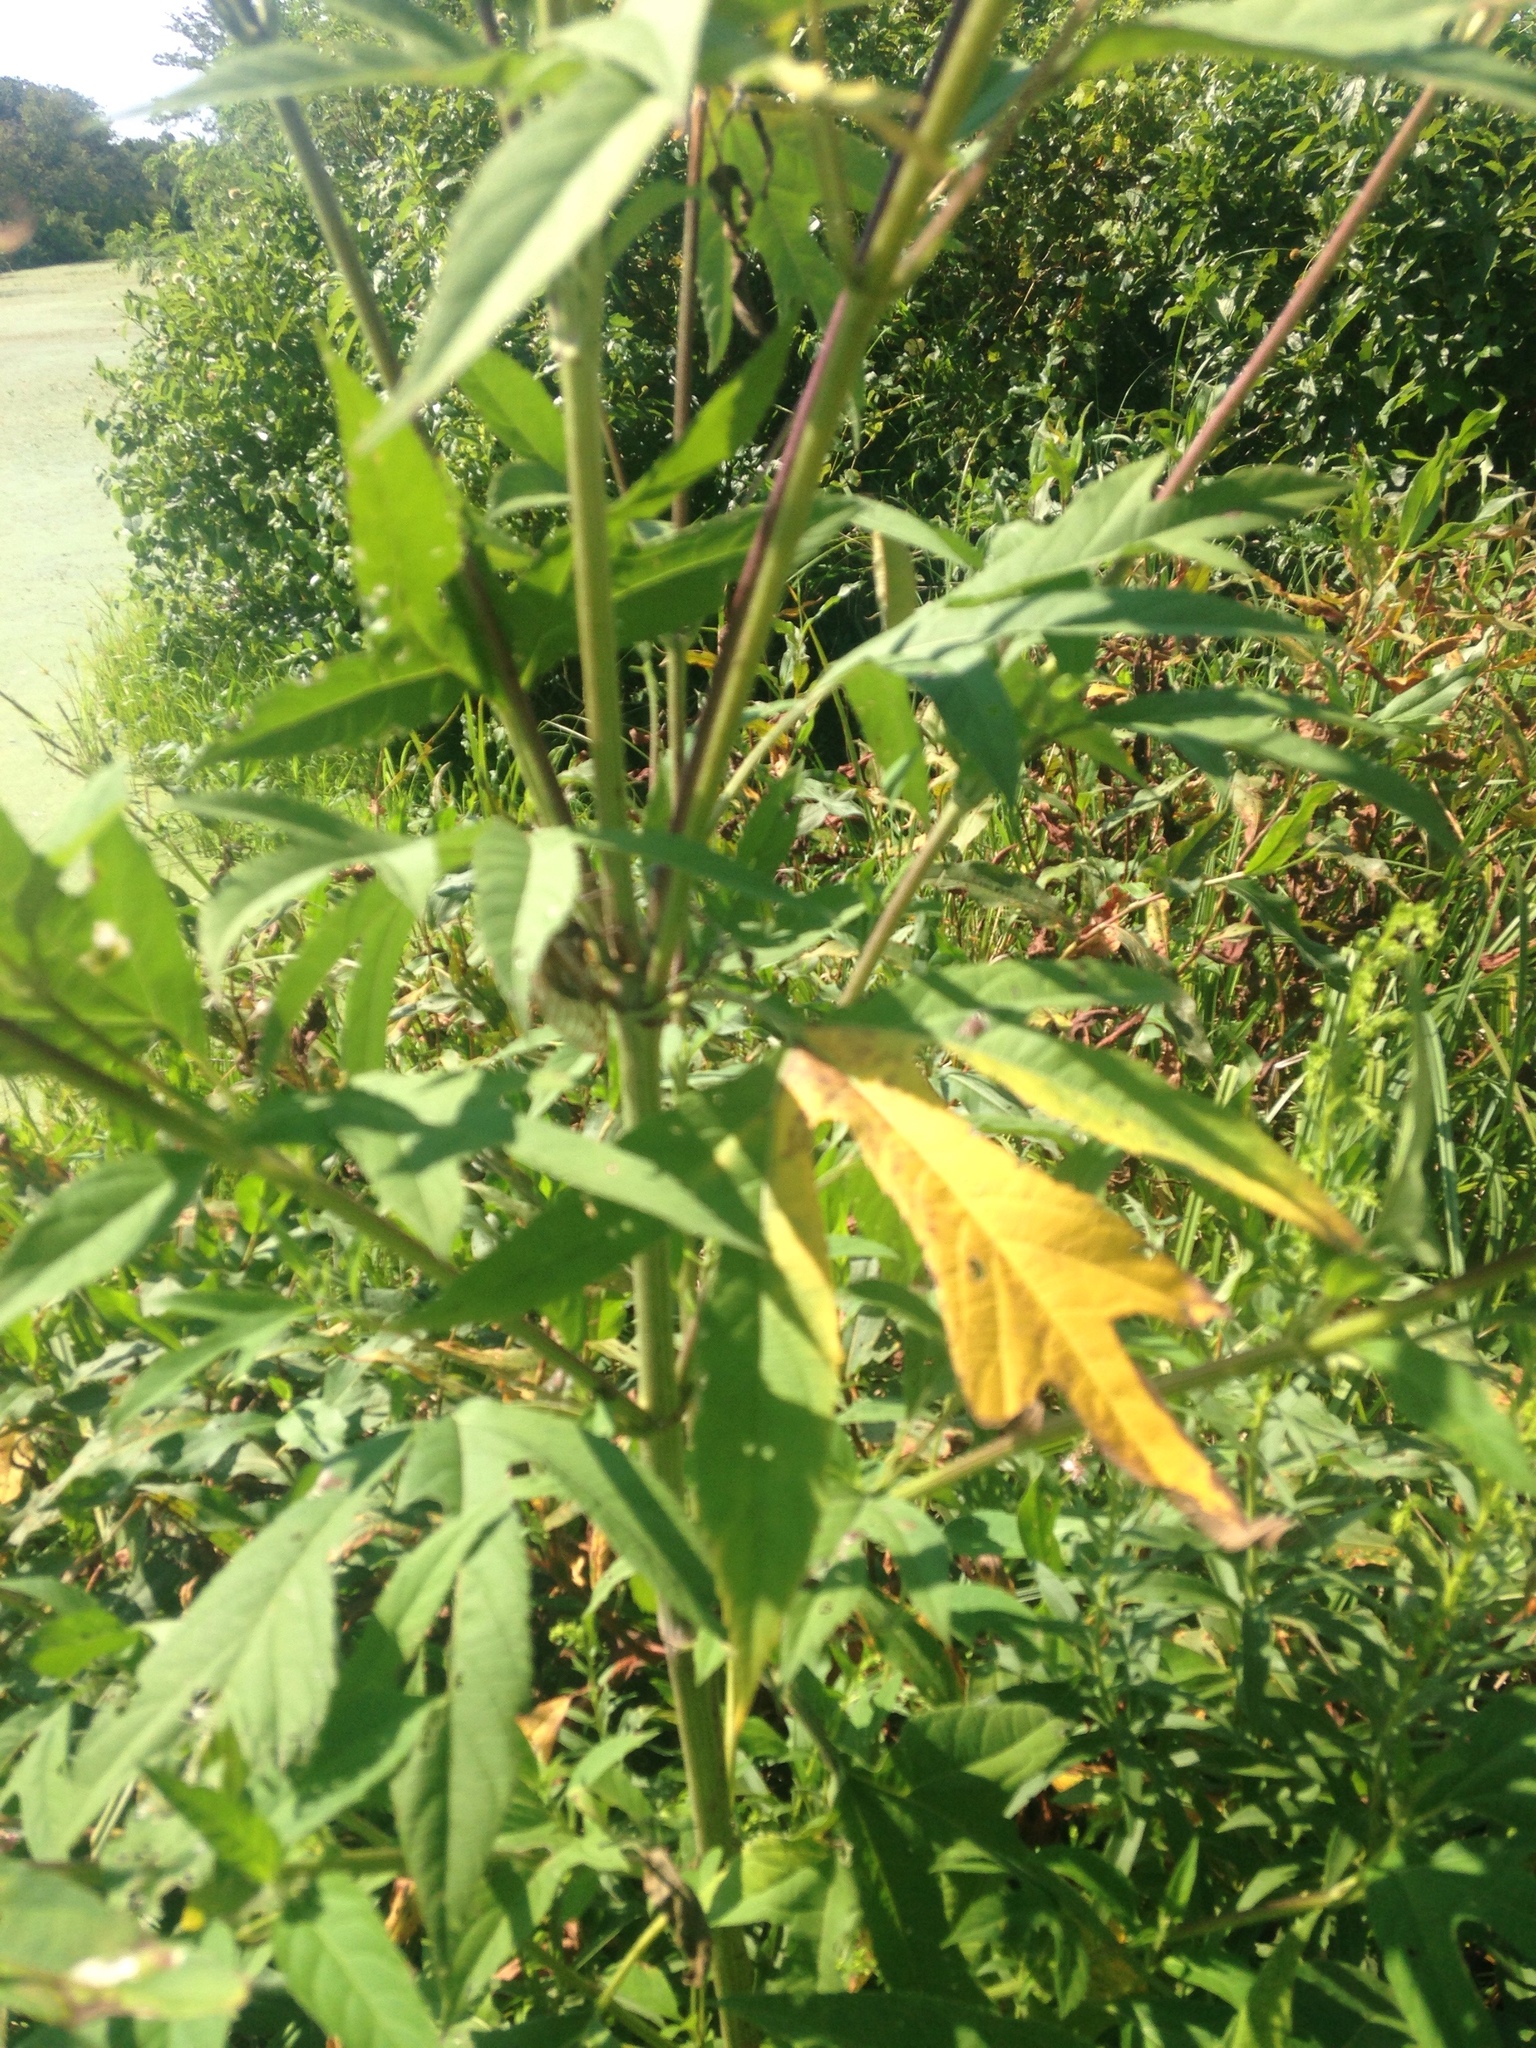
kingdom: Plantae
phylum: Tracheophyta
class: Magnoliopsida
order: Asterales
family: Asteraceae
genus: Ambrosia
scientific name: Ambrosia trifida
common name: Giant ragweed
